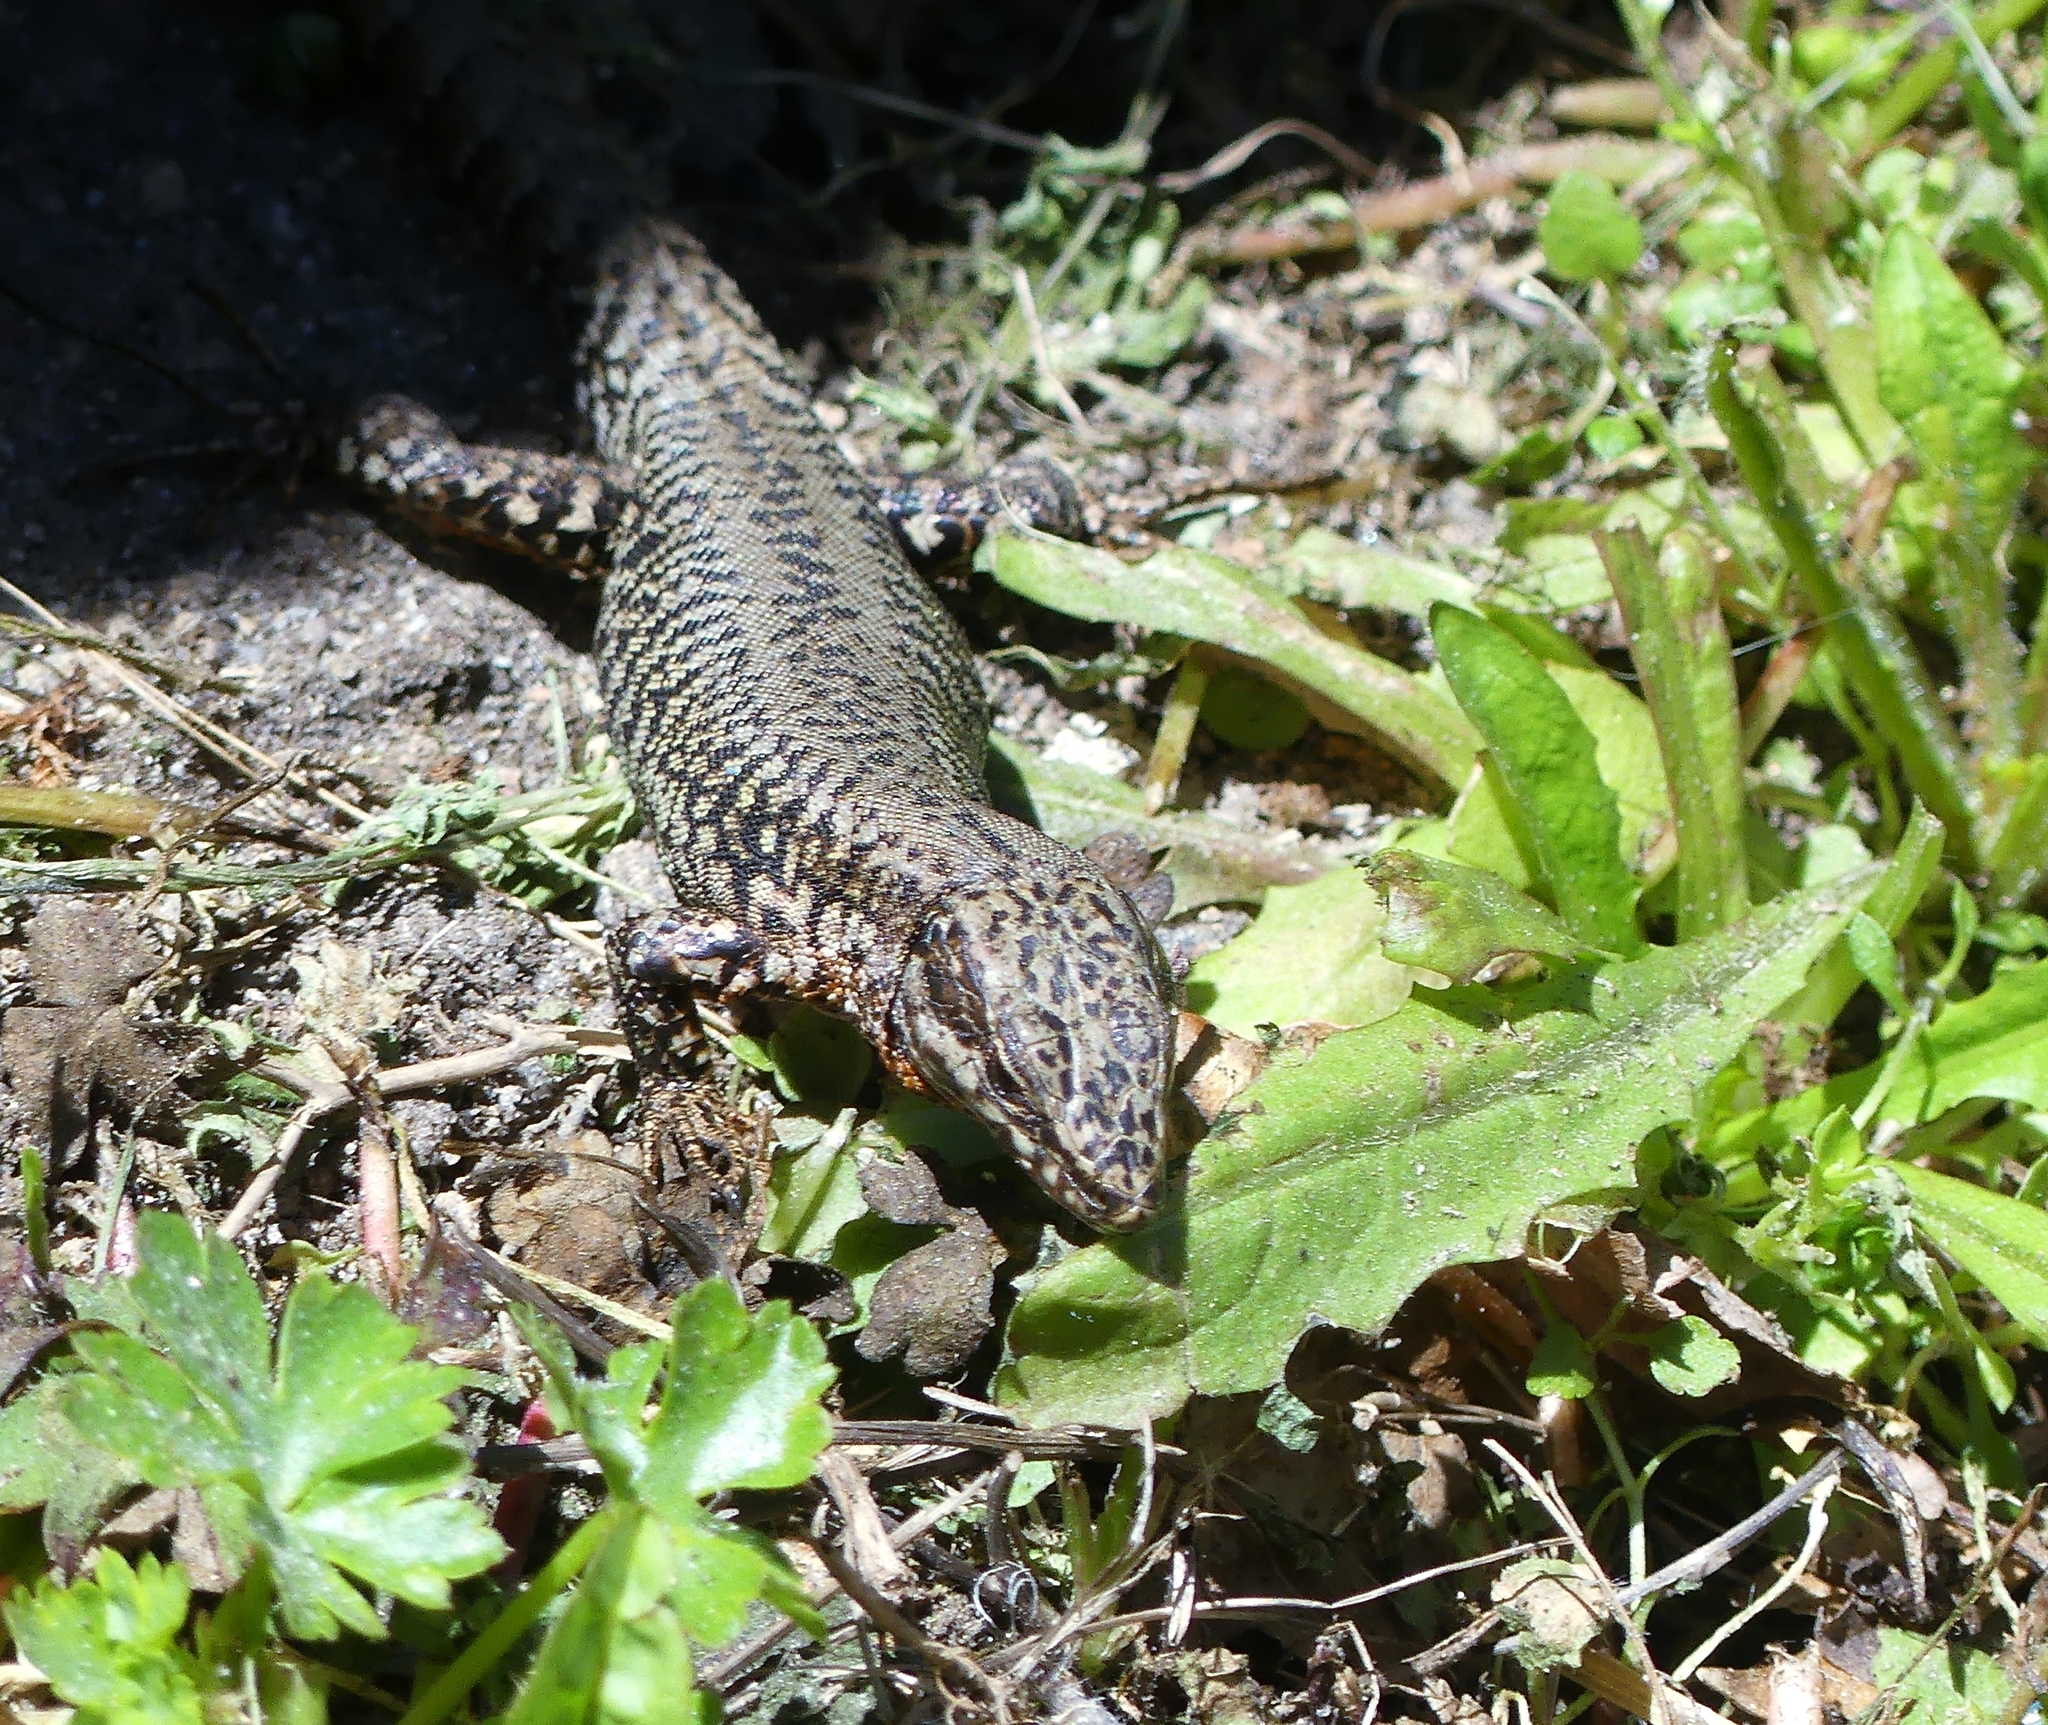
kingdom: Animalia
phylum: Chordata
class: Squamata
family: Lacertidae
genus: Podarcis
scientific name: Podarcis muralis
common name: Common wall lizard
